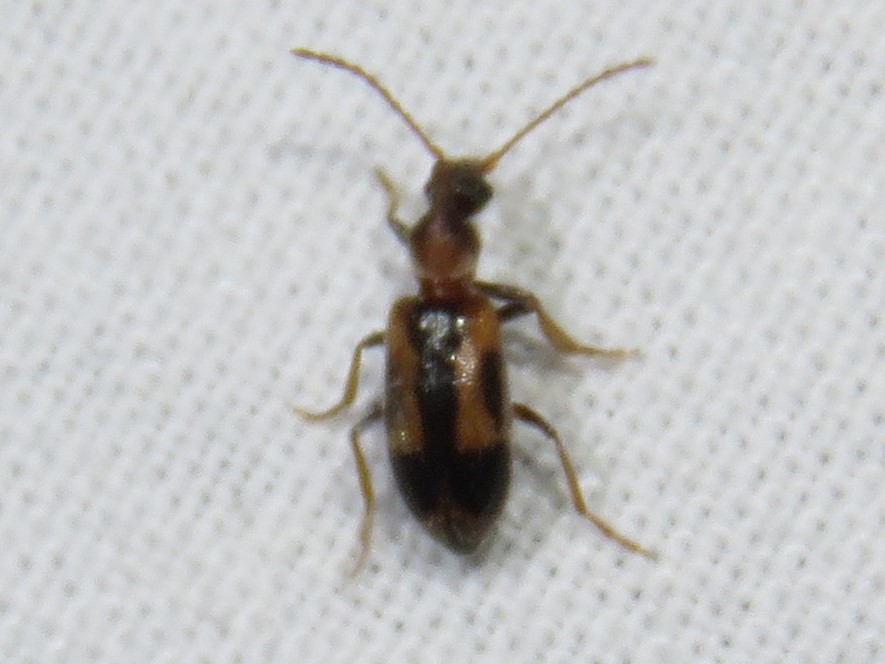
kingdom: Animalia
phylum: Arthropoda
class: Insecta
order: Coleoptera
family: Anthicidae
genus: Notoxus
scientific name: Notoxus anchora
